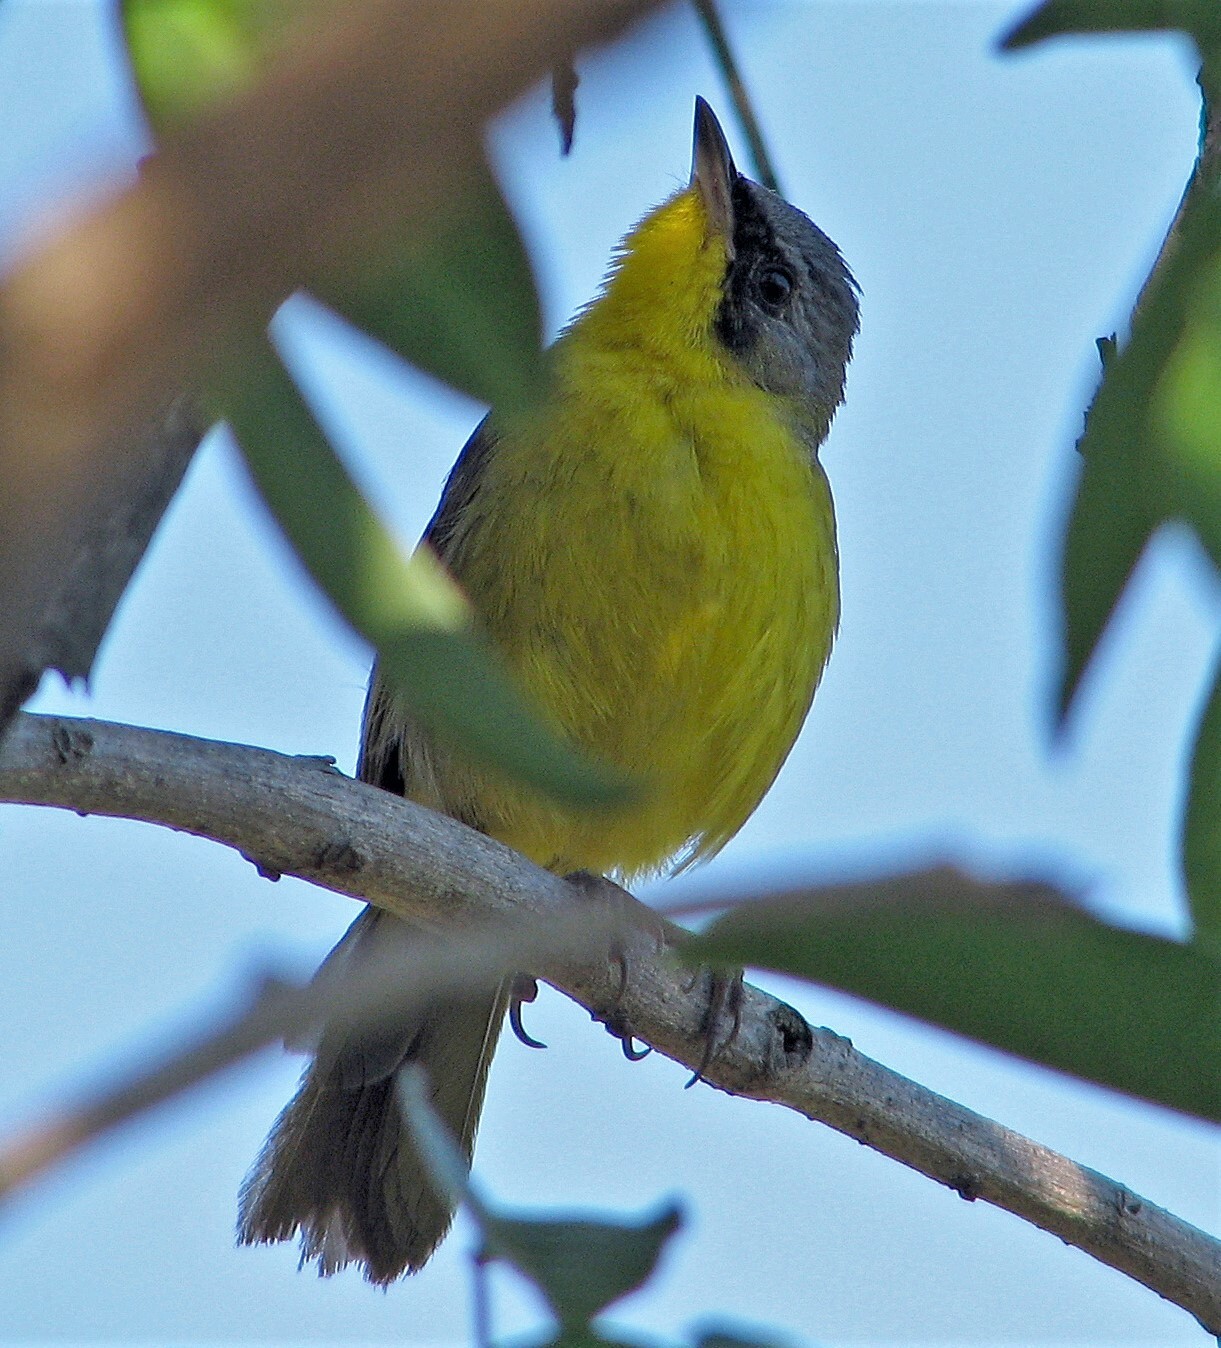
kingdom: Animalia
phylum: Chordata
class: Aves
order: Passeriformes
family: Parulidae
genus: Geothlypis
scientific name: Geothlypis velata
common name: Southern yellowthroat
